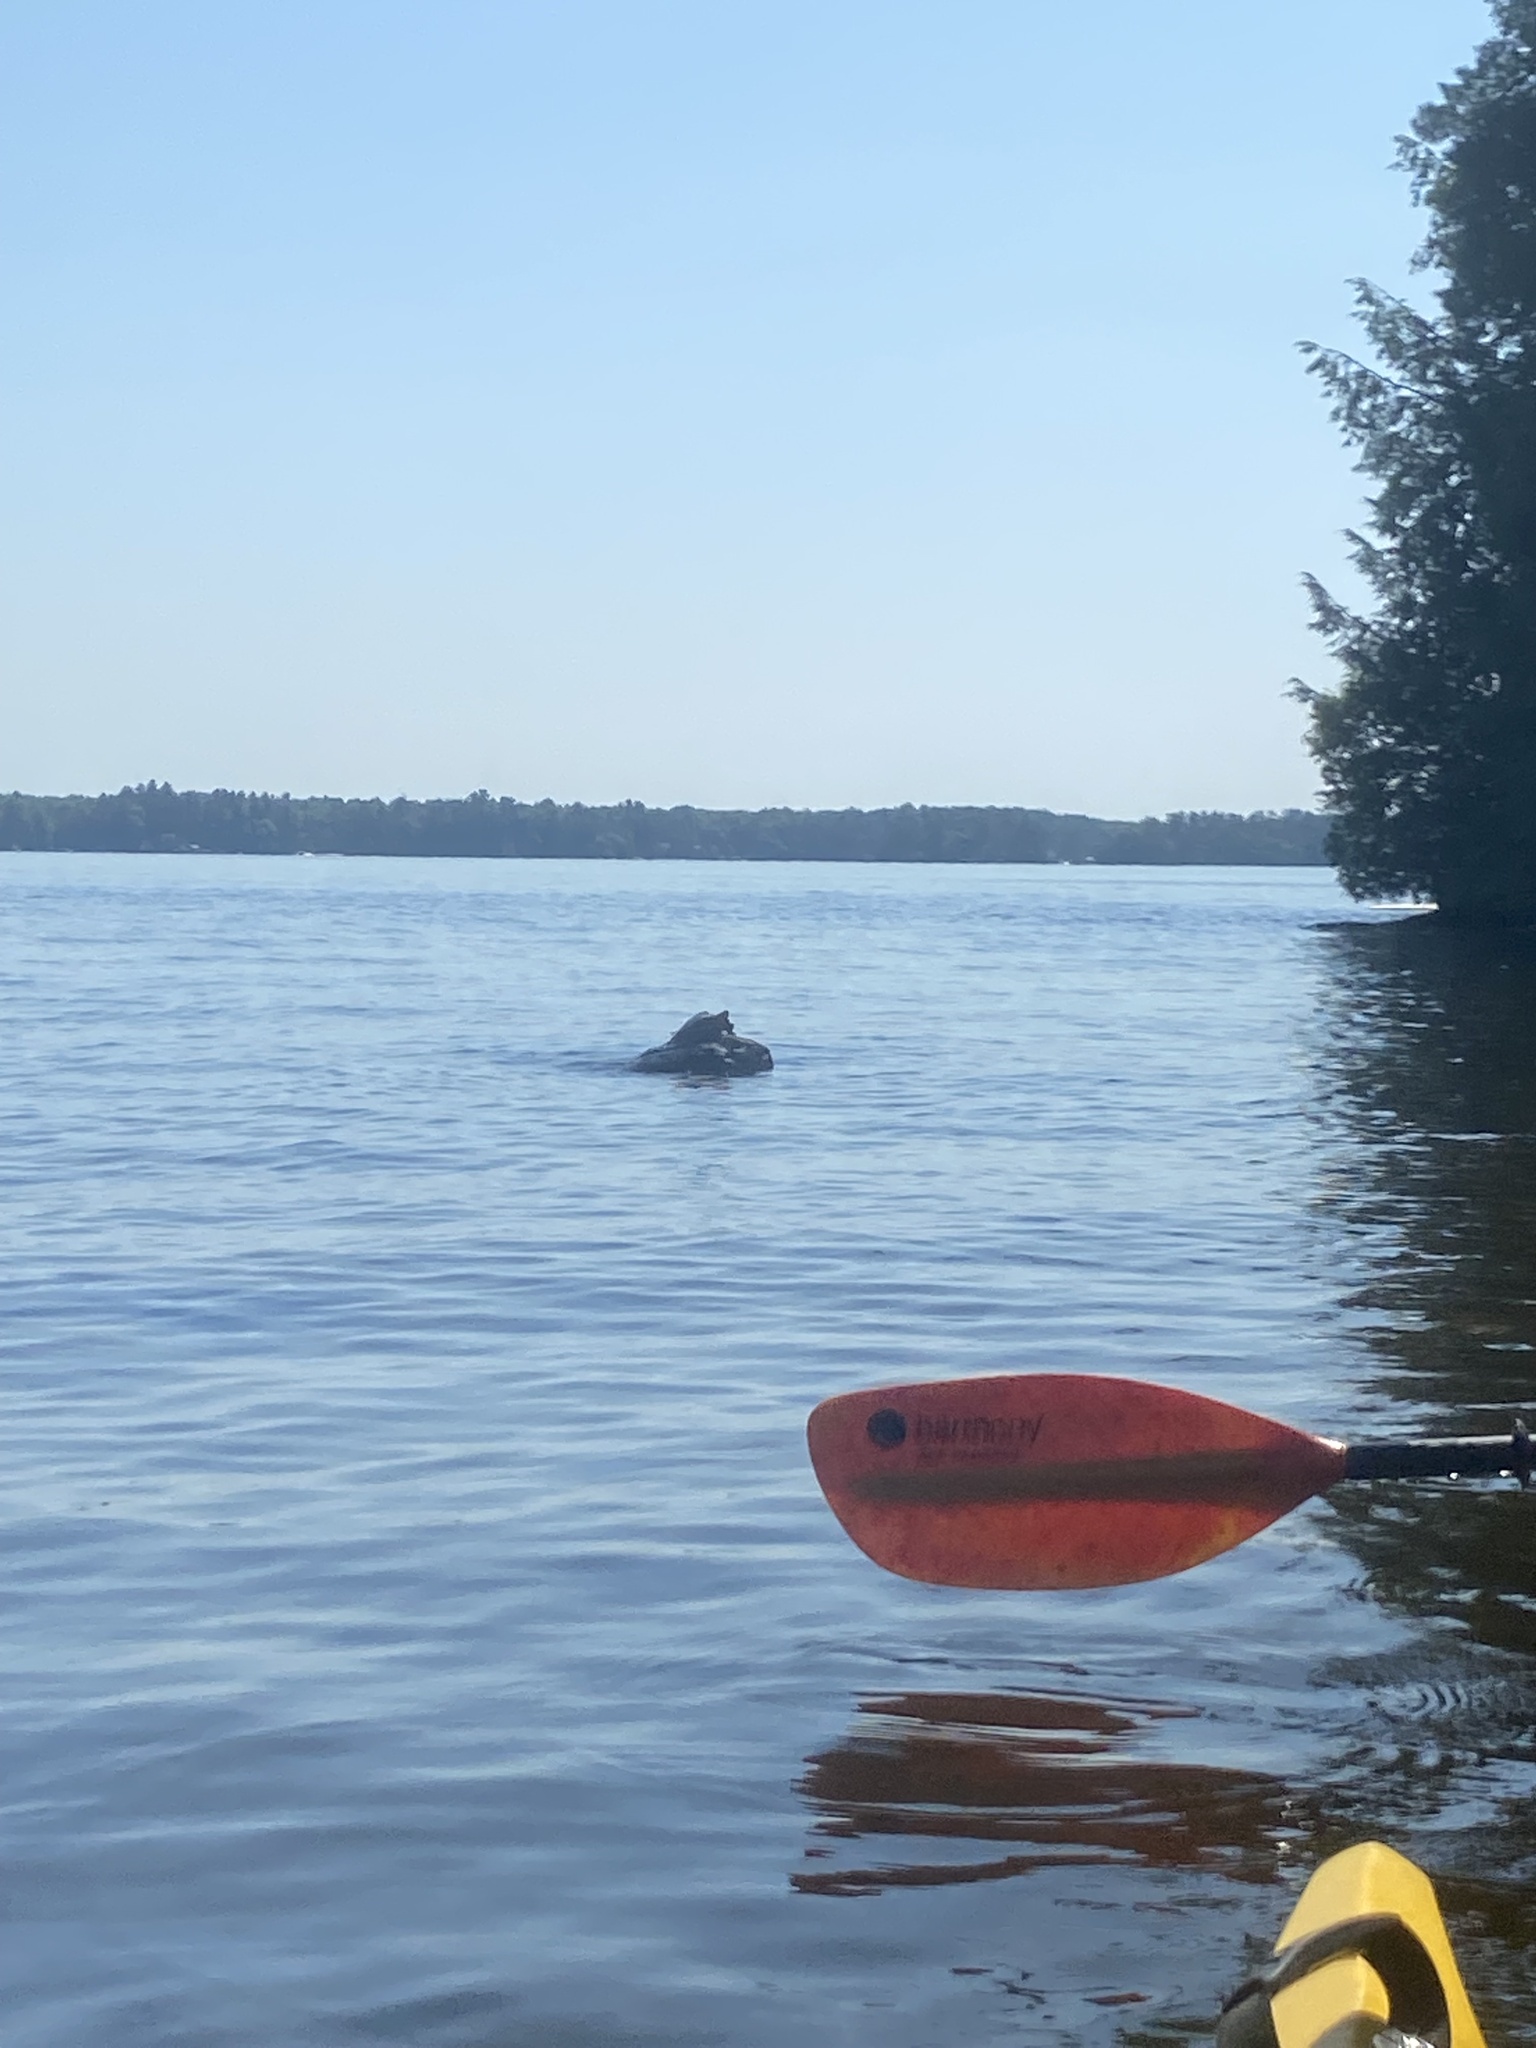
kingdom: Animalia
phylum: Chordata
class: Testudines
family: Emydidae
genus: Graptemys
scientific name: Graptemys geographica
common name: Common map turtle
